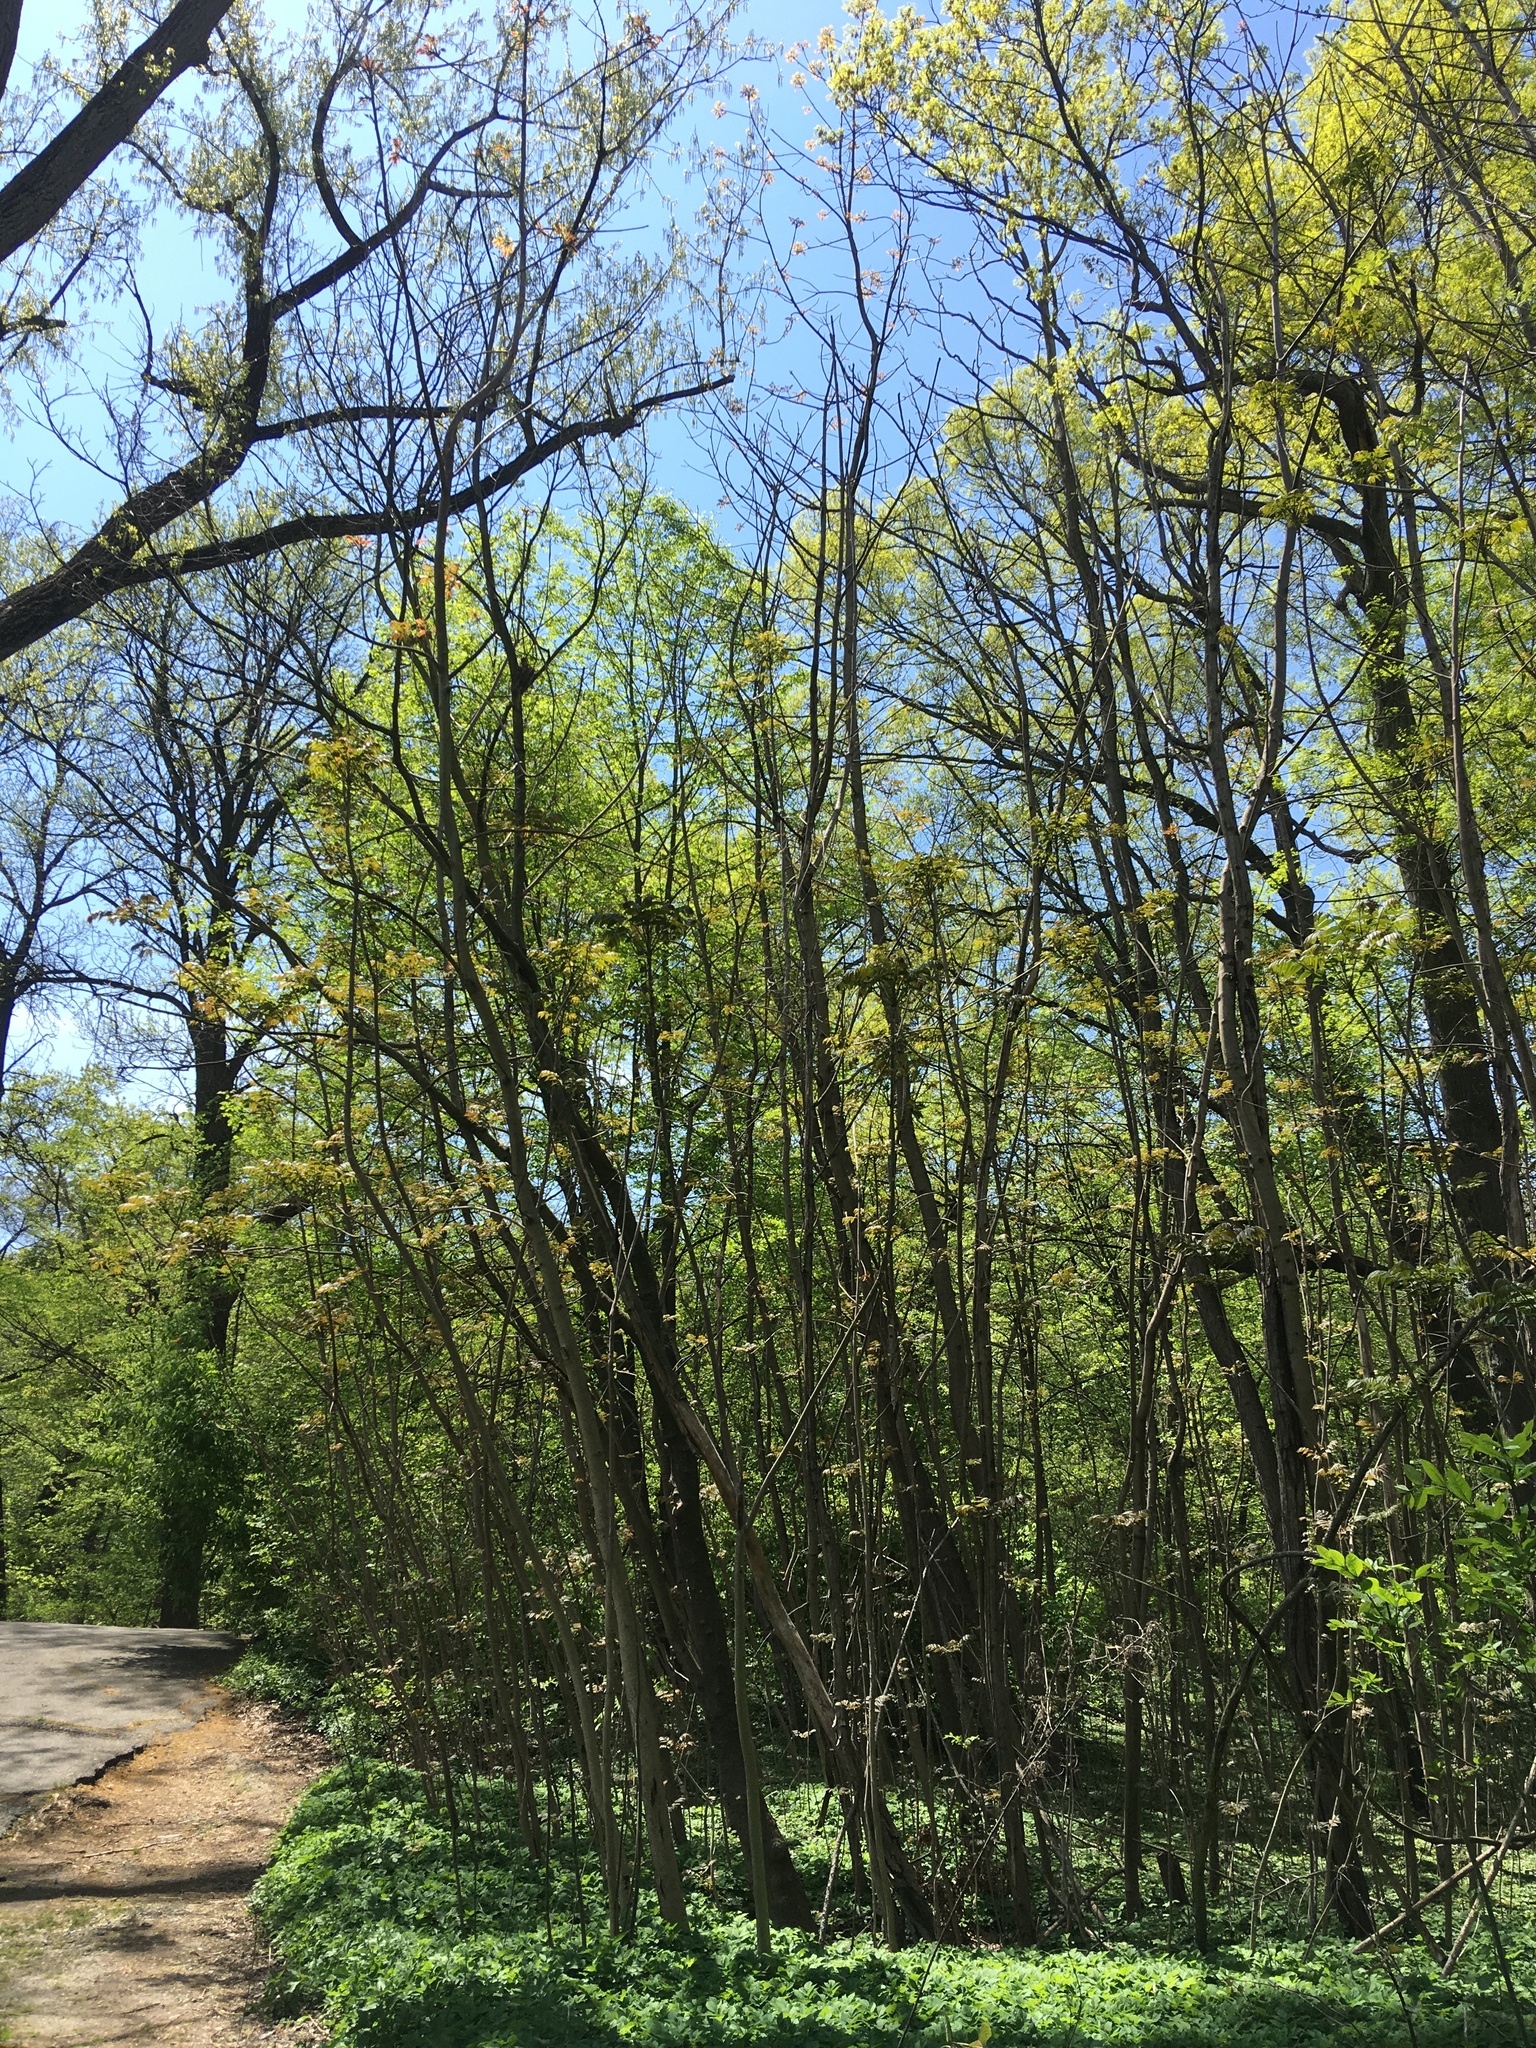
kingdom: Plantae
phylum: Tracheophyta
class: Magnoliopsida
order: Sapindales
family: Meliaceae
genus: Toona
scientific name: Toona sinensis
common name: Red toon
